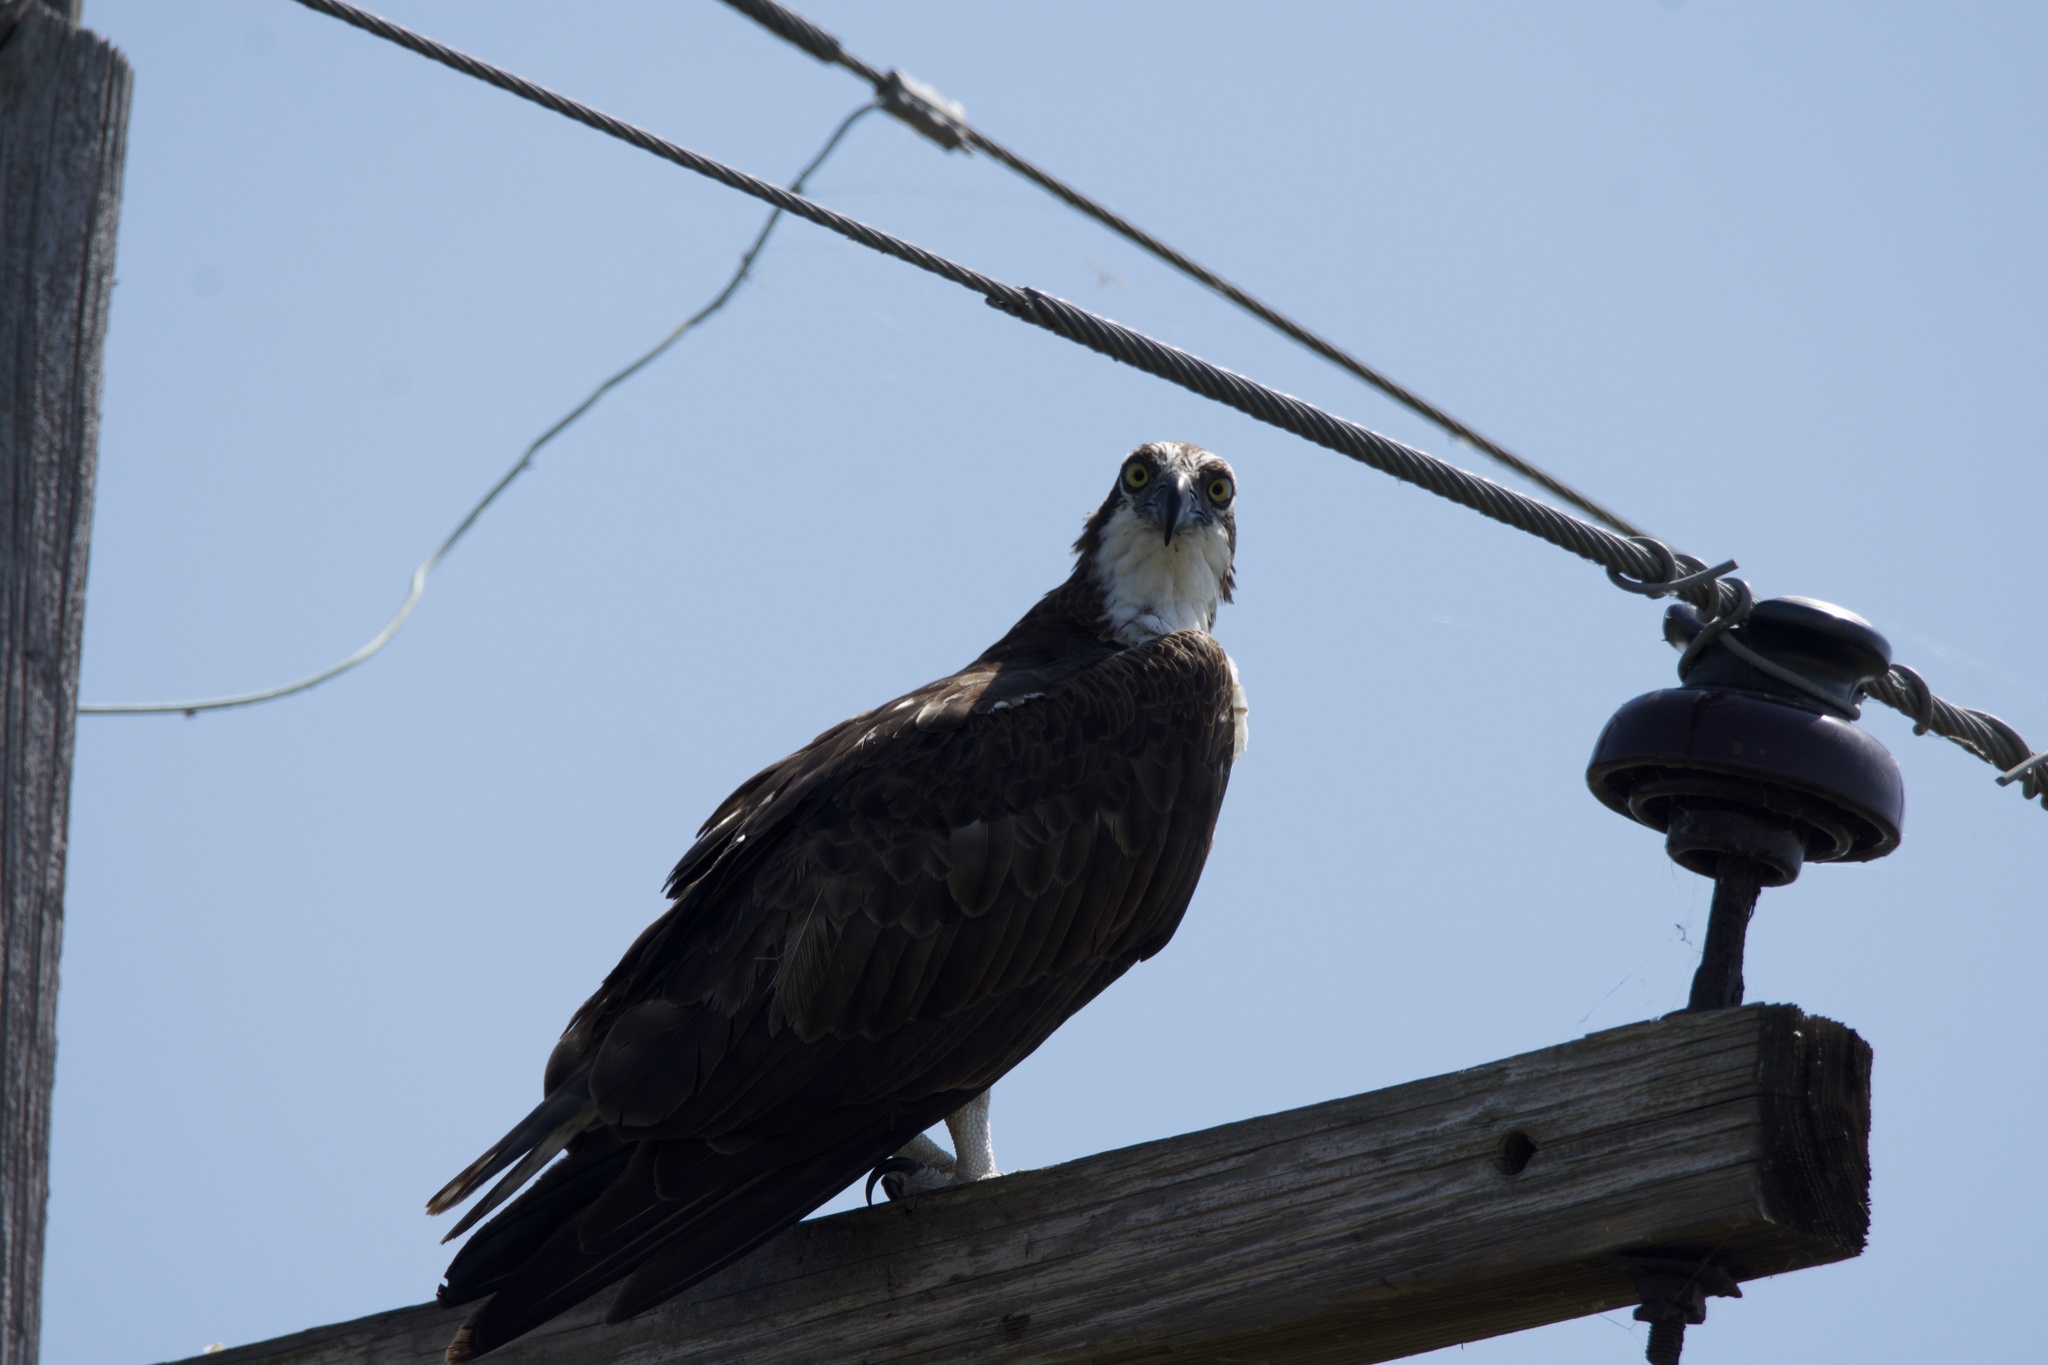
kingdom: Animalia
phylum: Chordata
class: Aves
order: Accipitriformes
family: Pandionidae
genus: Pandion
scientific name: Pandion haliaetus
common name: Osprey
